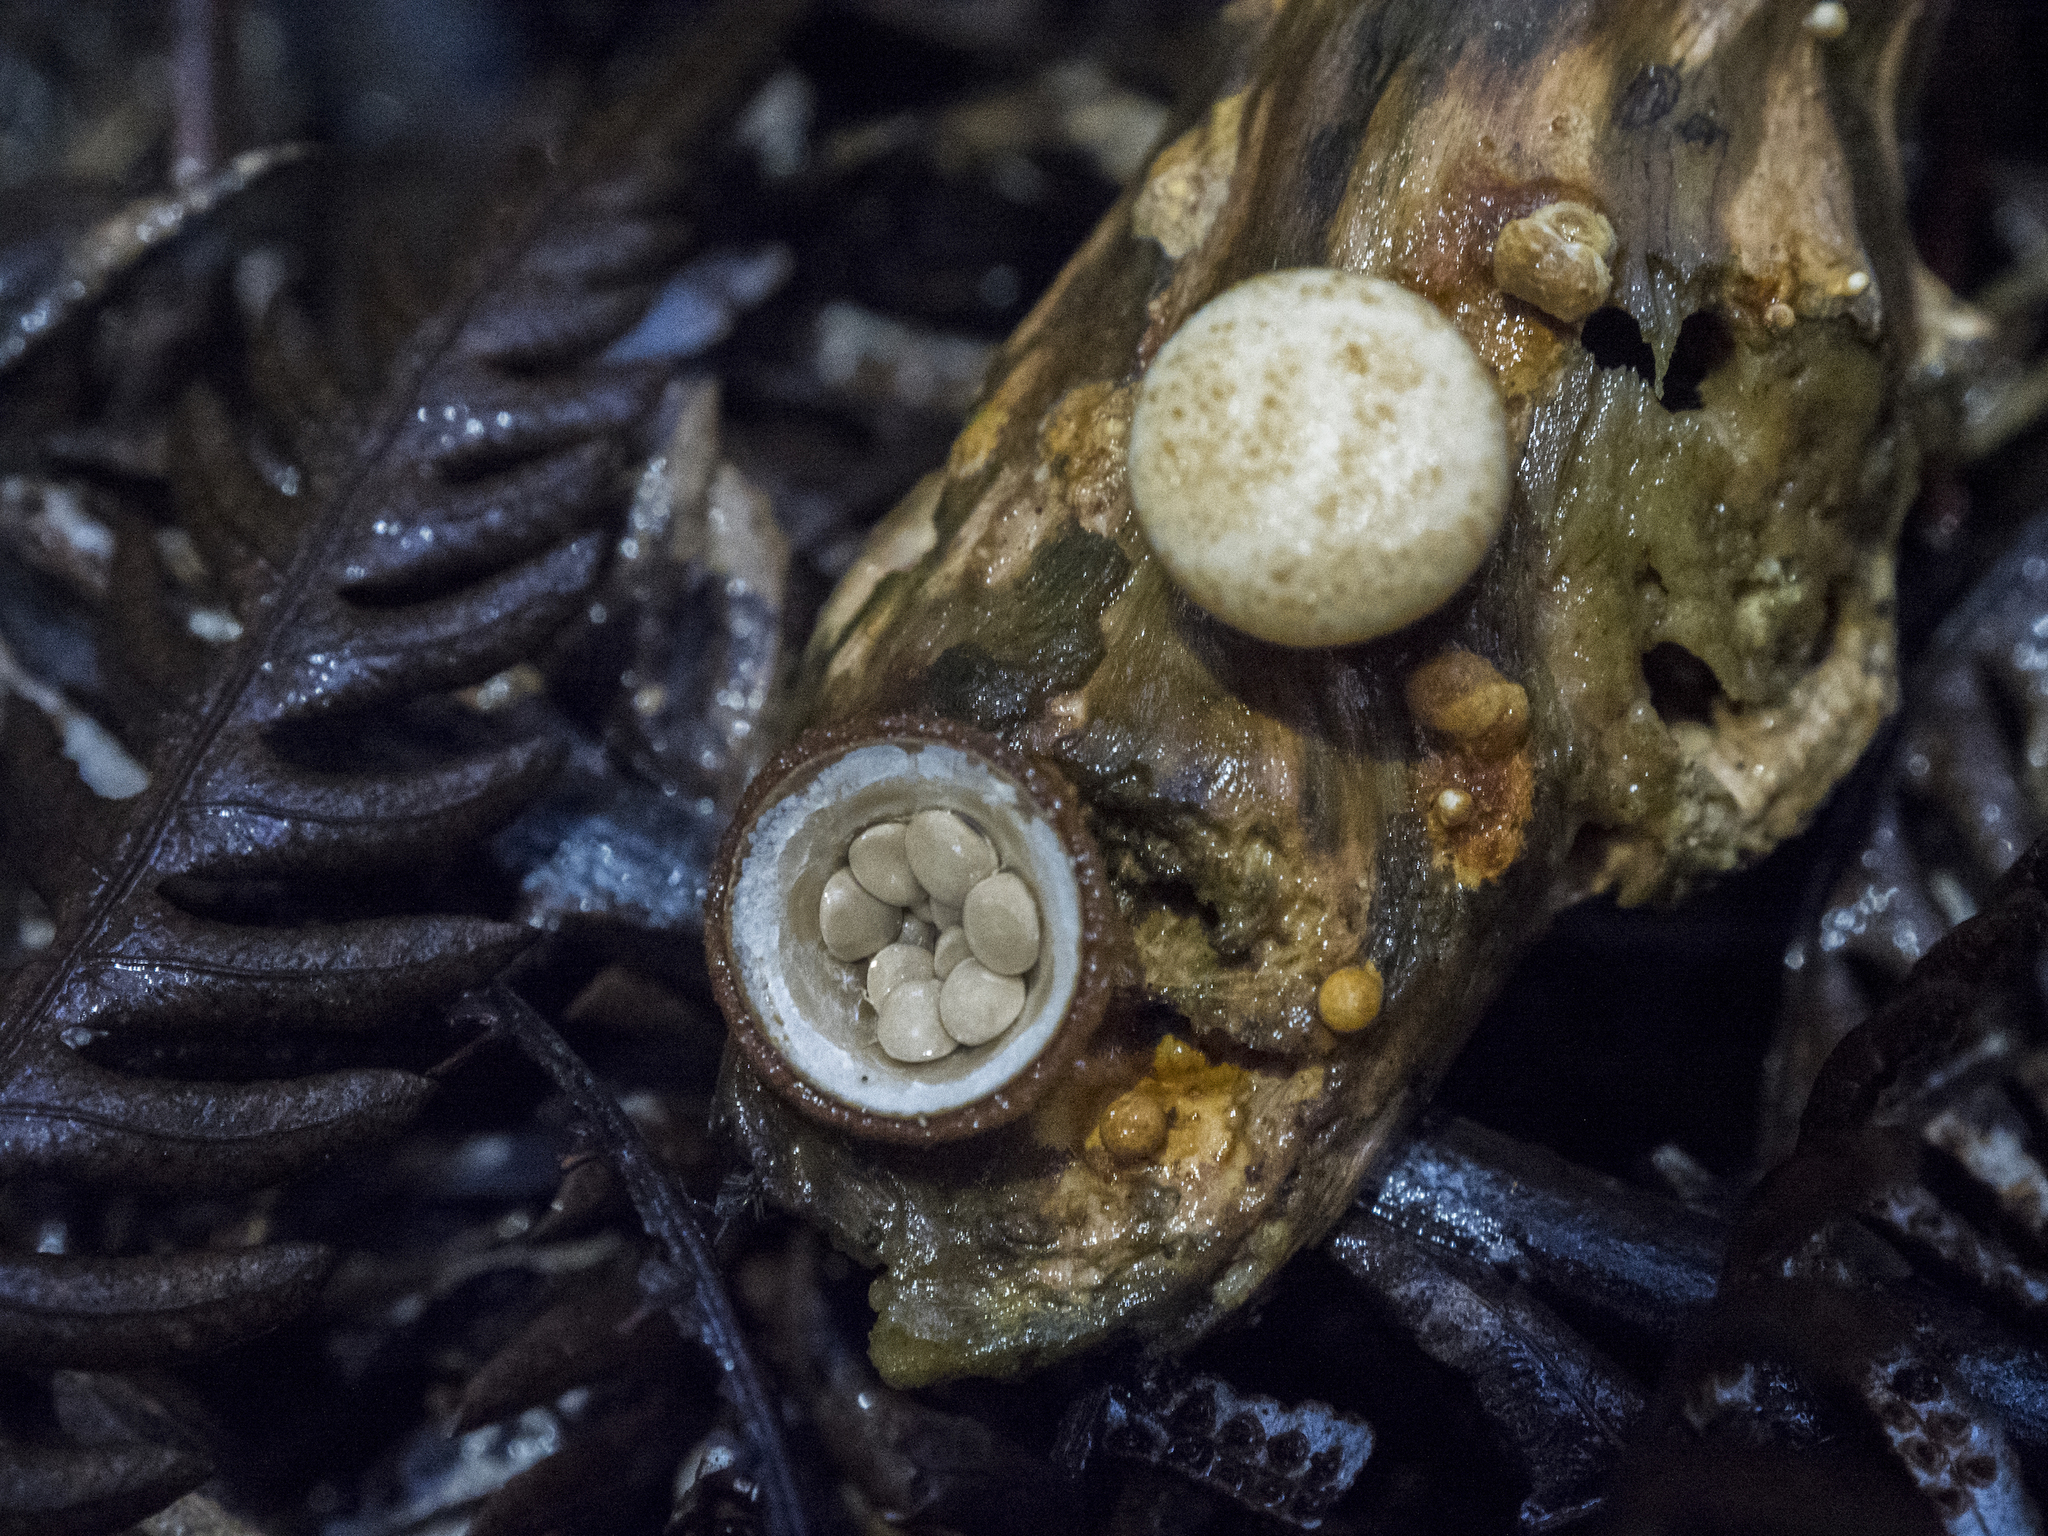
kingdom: Fungi
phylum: Basidiomycota
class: Agaricomycetes
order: Agaricales
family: Nidulariaceae
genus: Crucibulum
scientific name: Crucibulum simile
